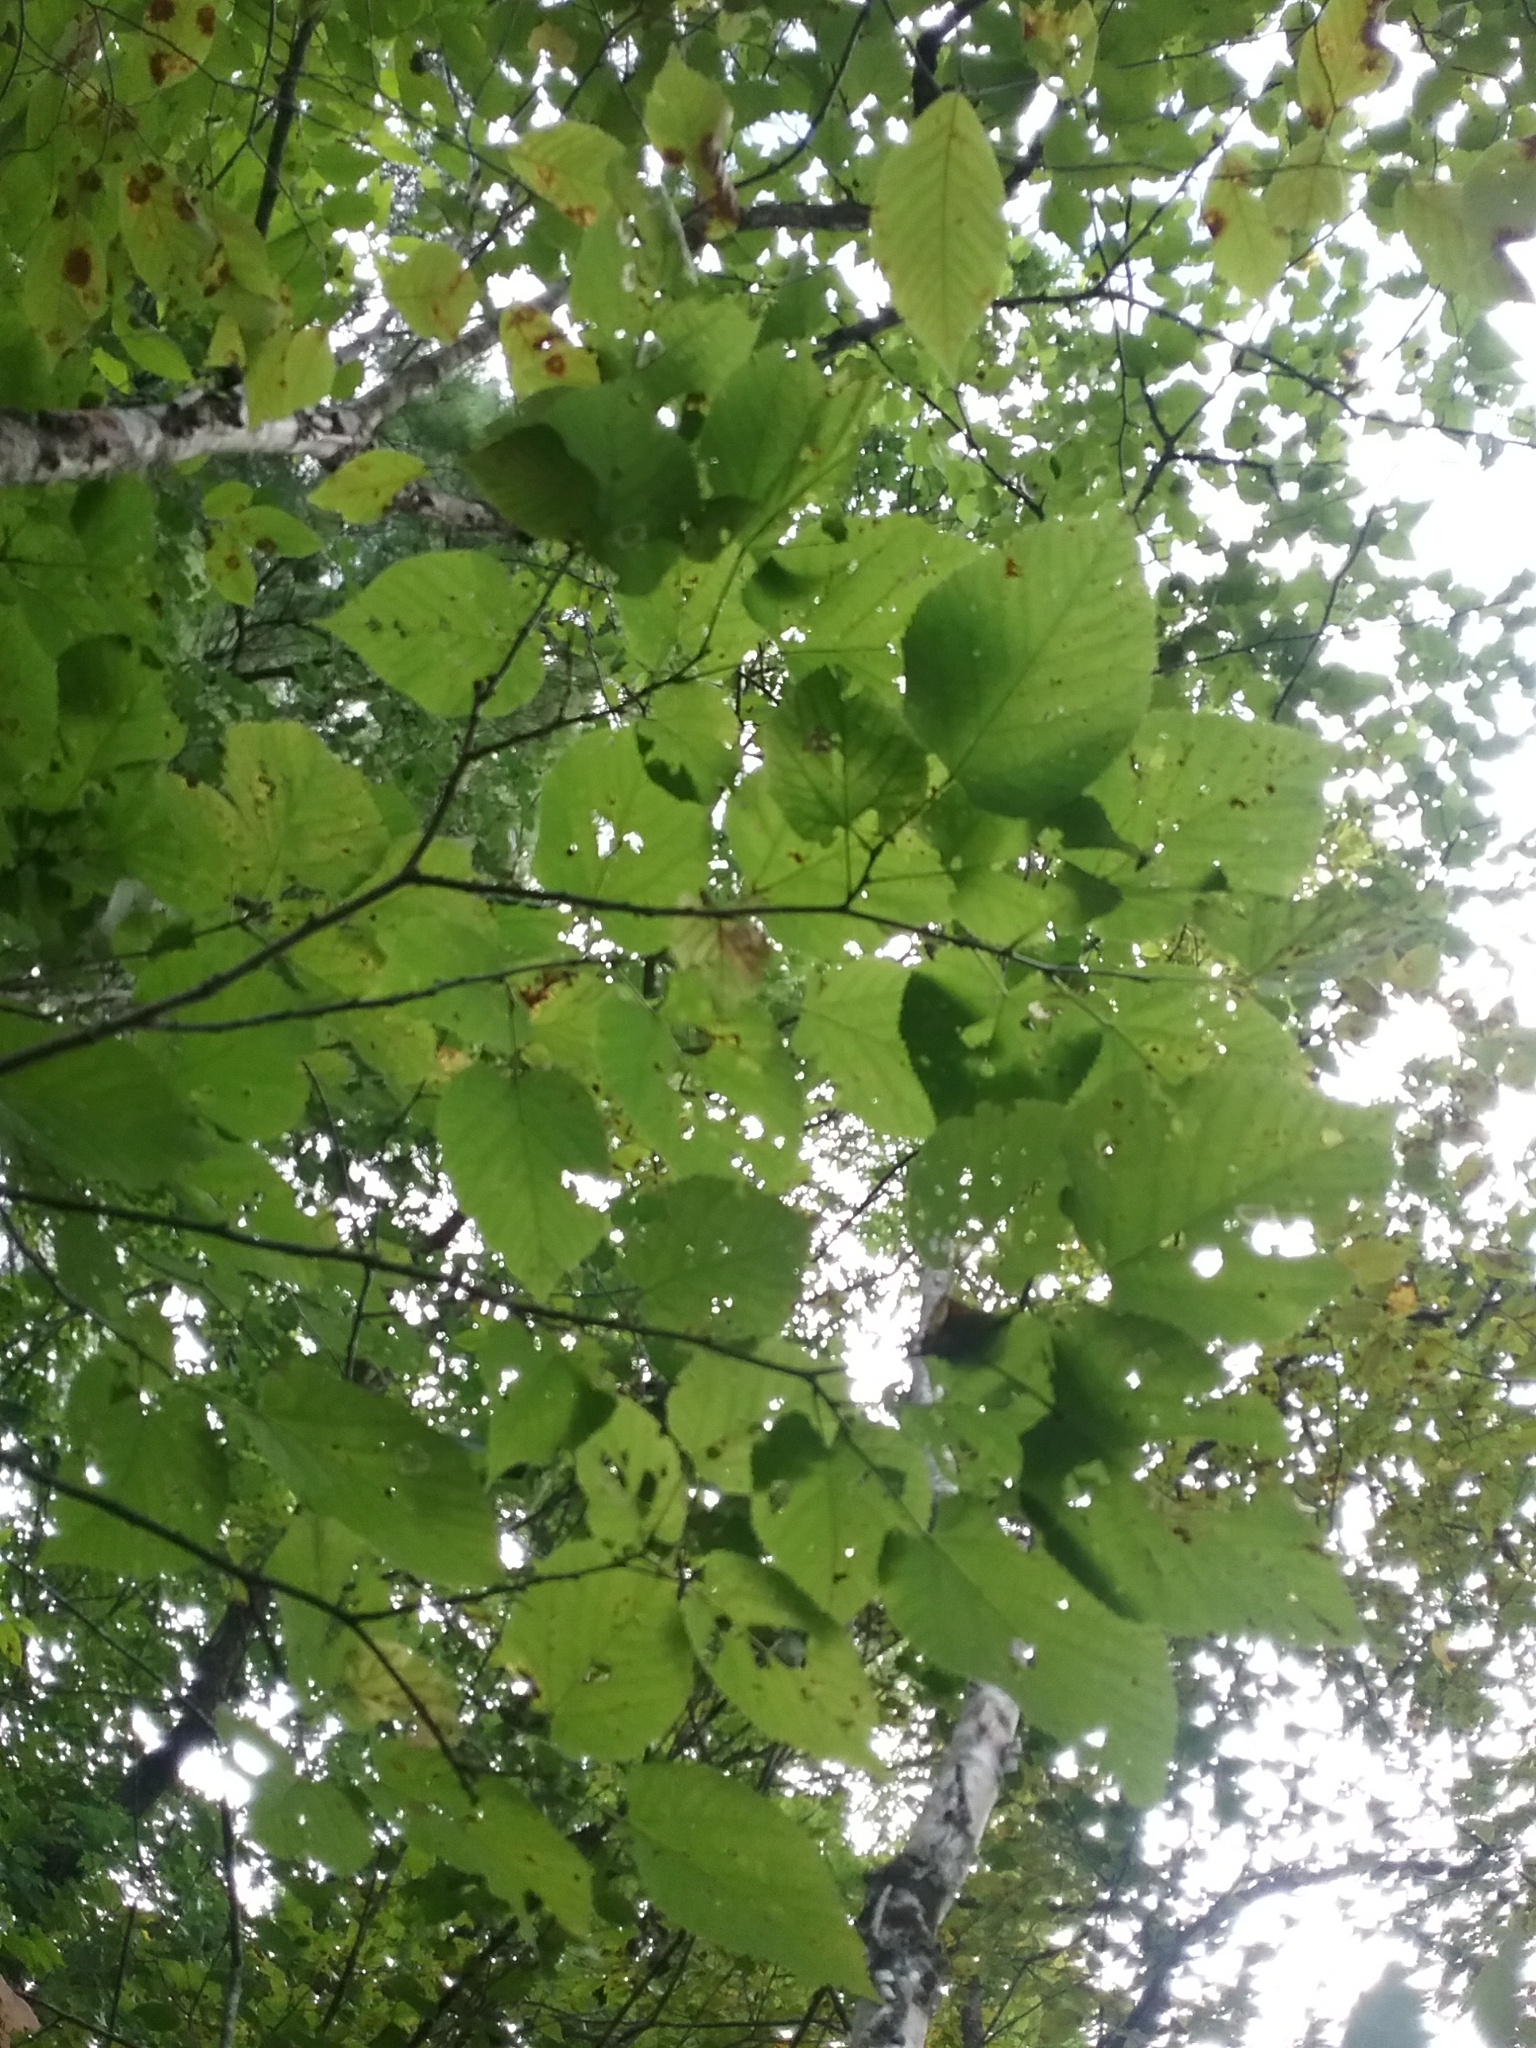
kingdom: Plantae
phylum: Tracheophyta
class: Magnoliopsida
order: Malvales
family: Malvaceae
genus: Tilia
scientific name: Tilia americana
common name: Basswood
